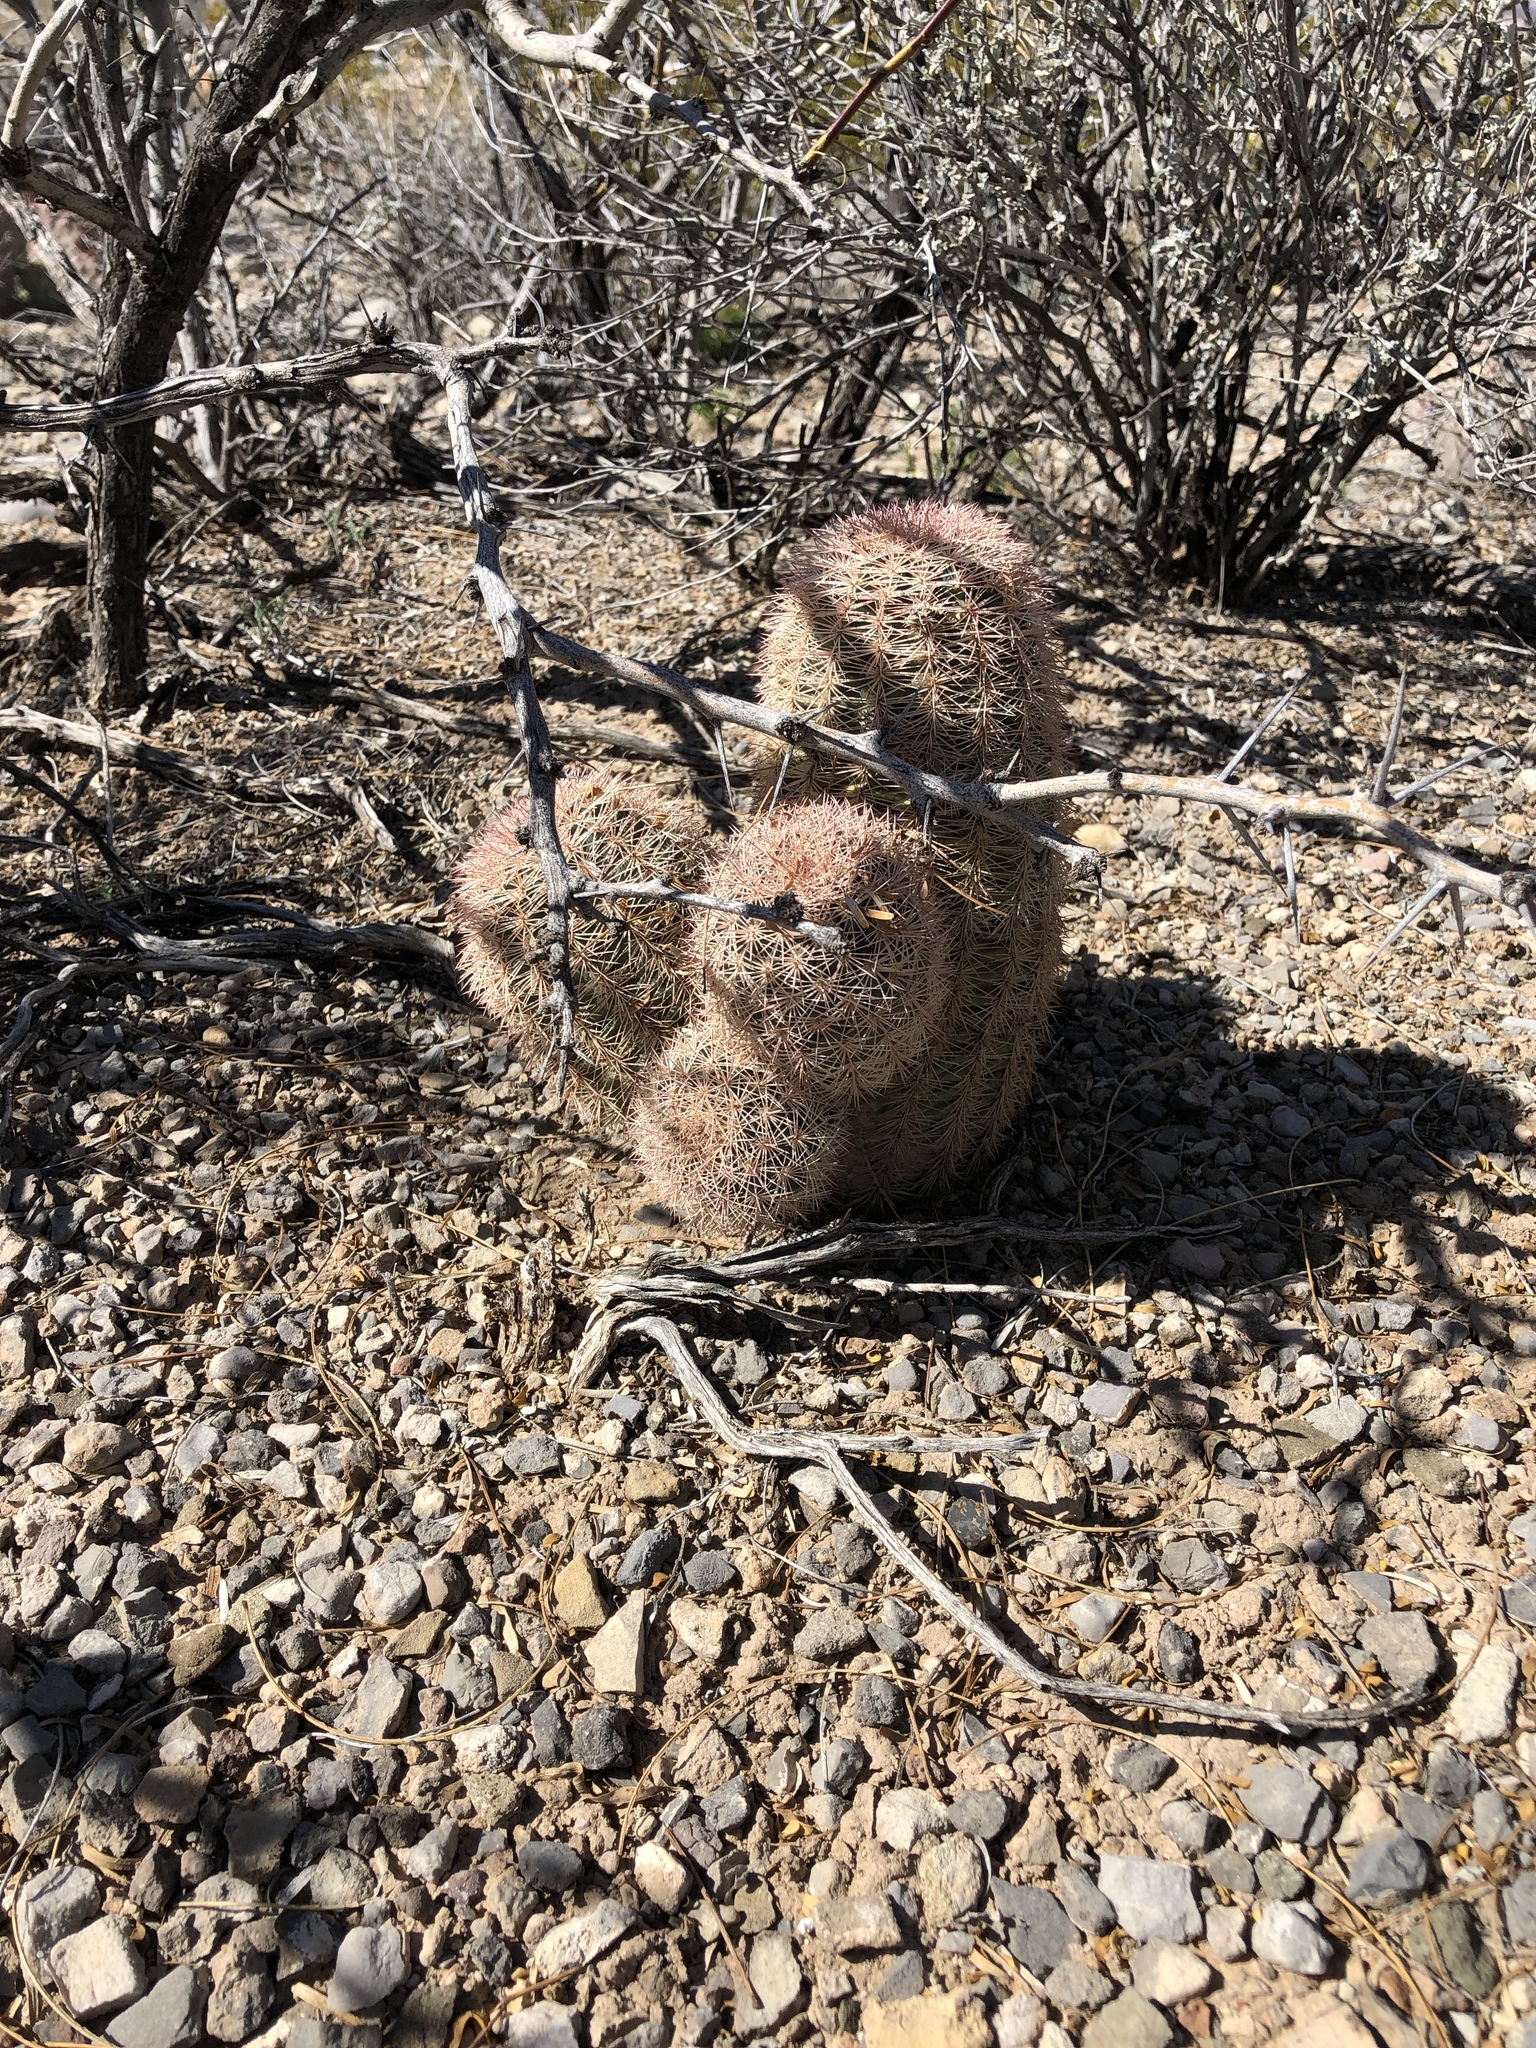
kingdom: Plantae
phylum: Tracheophyta
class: Magnoliopsida
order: Caryophyllales
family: Cactaceae
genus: Echinocereus
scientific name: Echinocereus dasyacanthus
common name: Spiny hedgehog cactus
